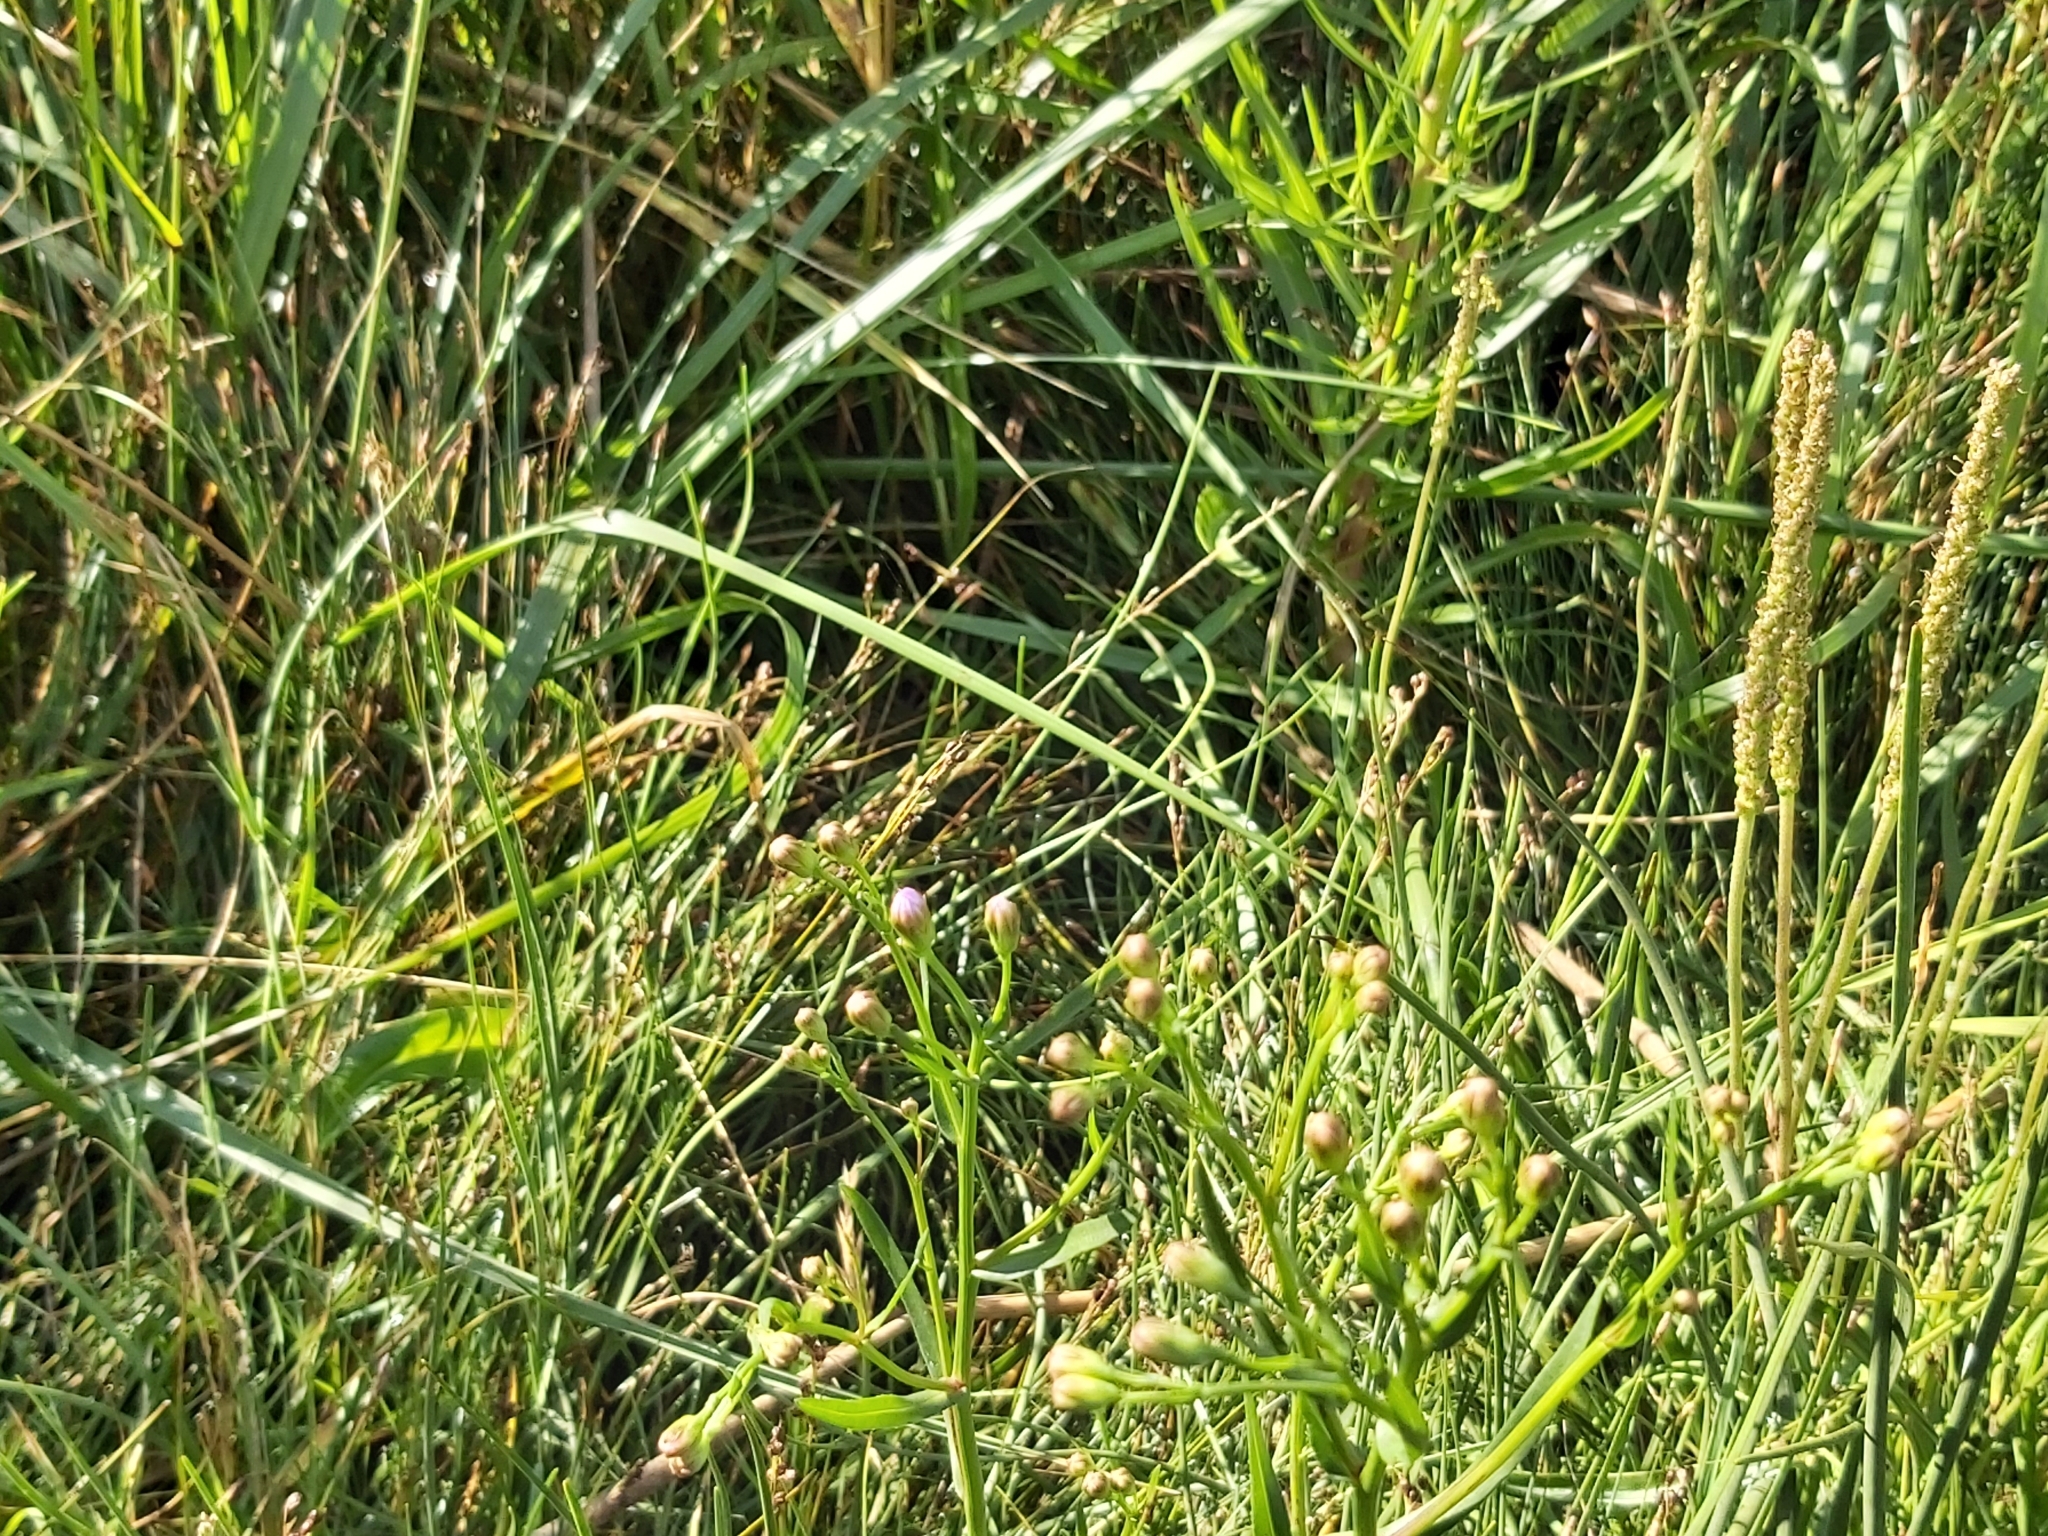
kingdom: Plantae
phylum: Tracheophyta
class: Magnoliopsida
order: Asterales
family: Asteraceae
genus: Tripolium
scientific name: Tripolium pannonicum
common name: Sea aster
